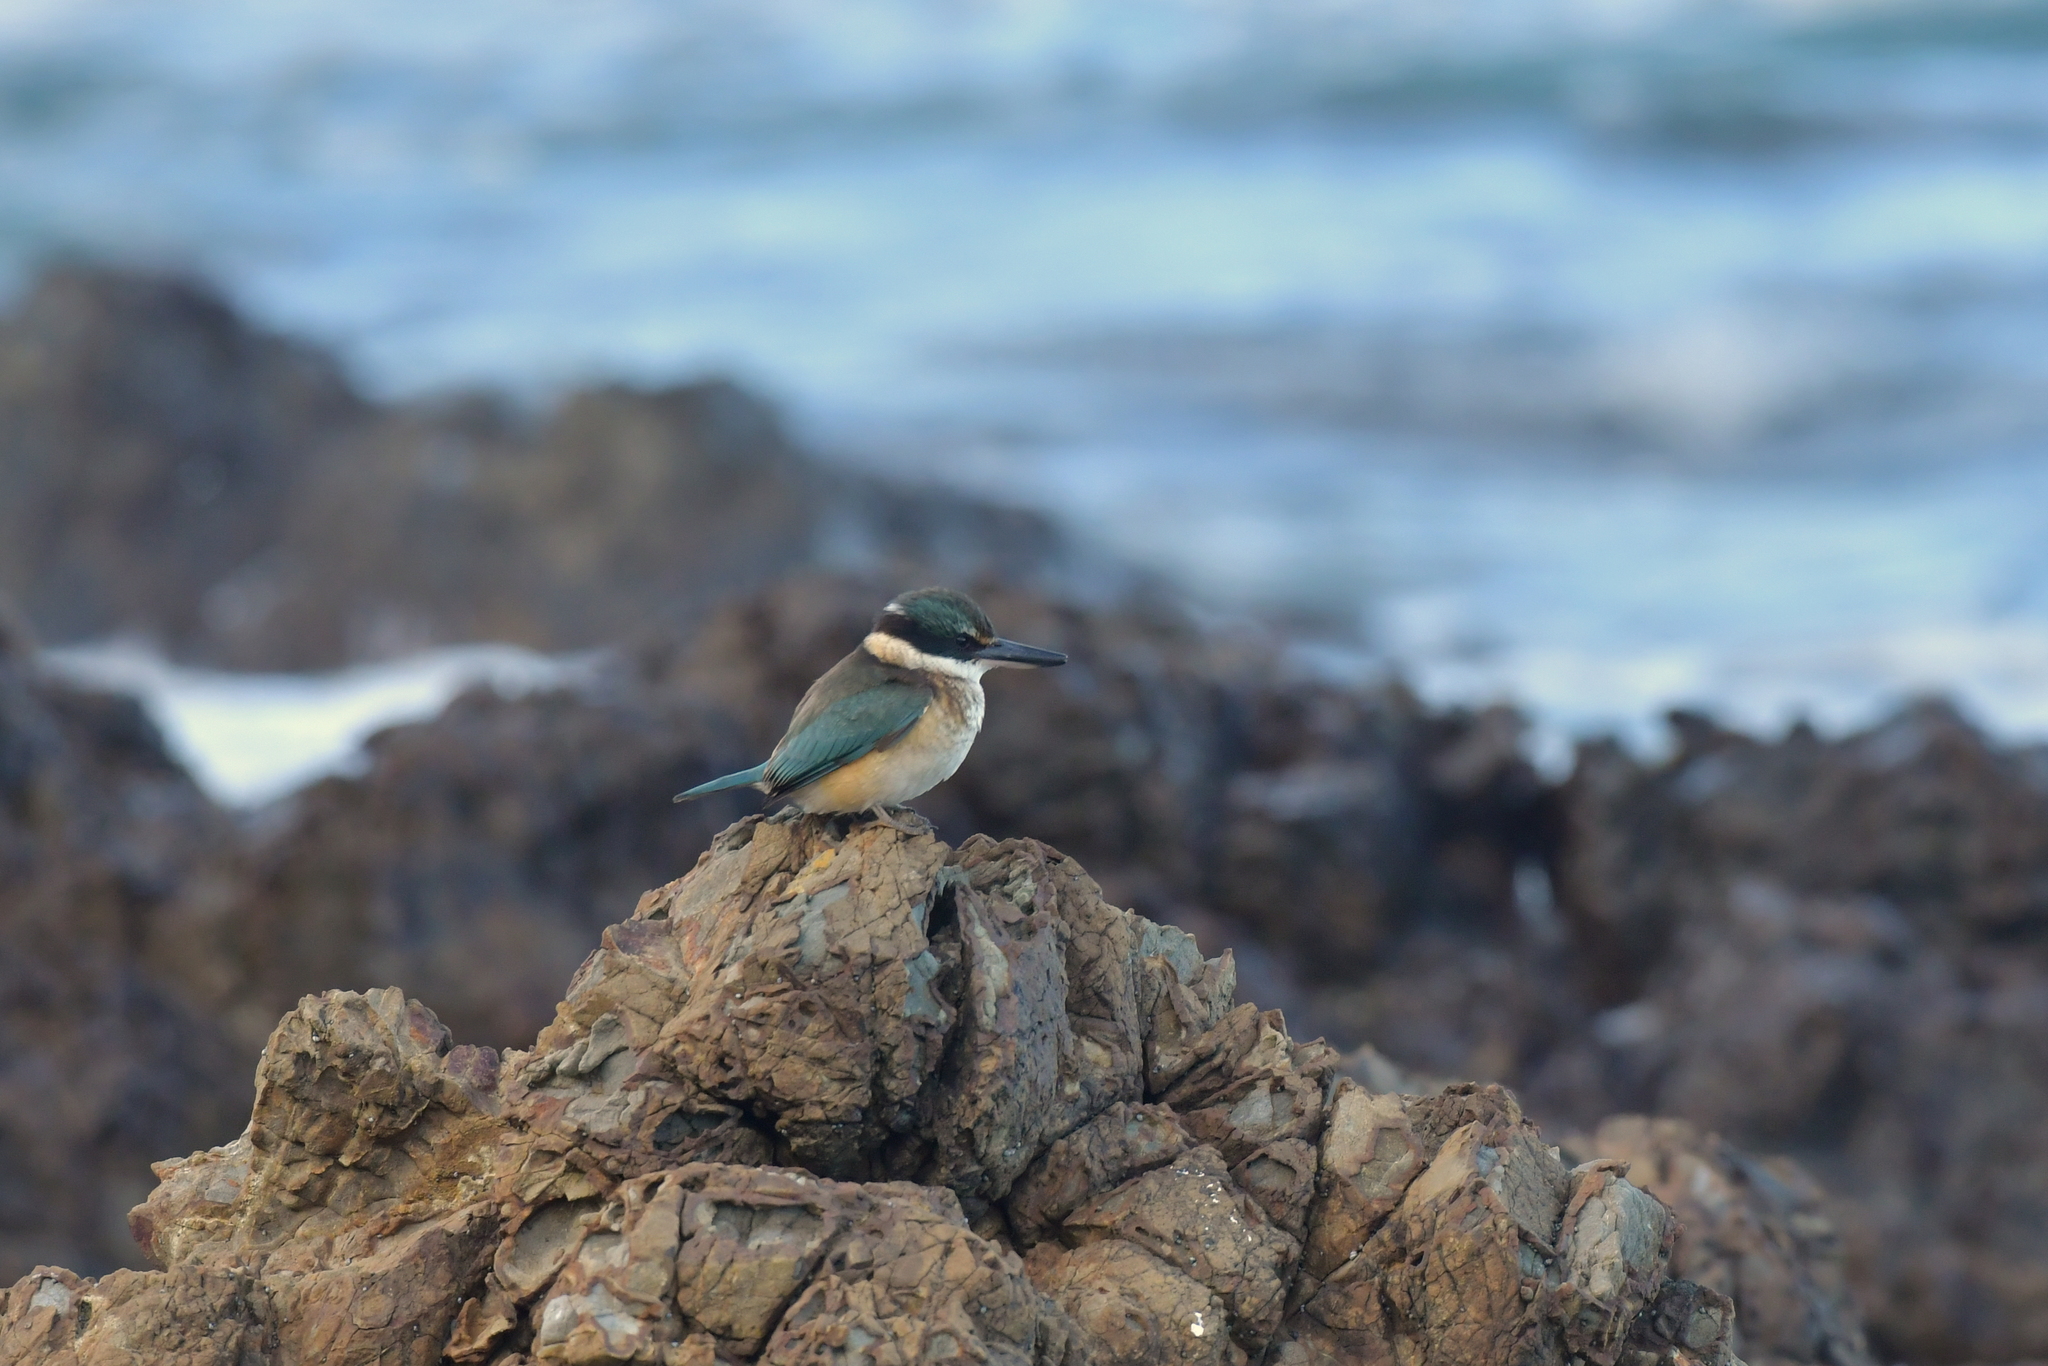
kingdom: Animalia
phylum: Chordata
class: Aves
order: Coraciiformes
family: Alcedinidae
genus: Todiramphus
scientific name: Todiramphus sanctus
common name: Sacred kingfisher
